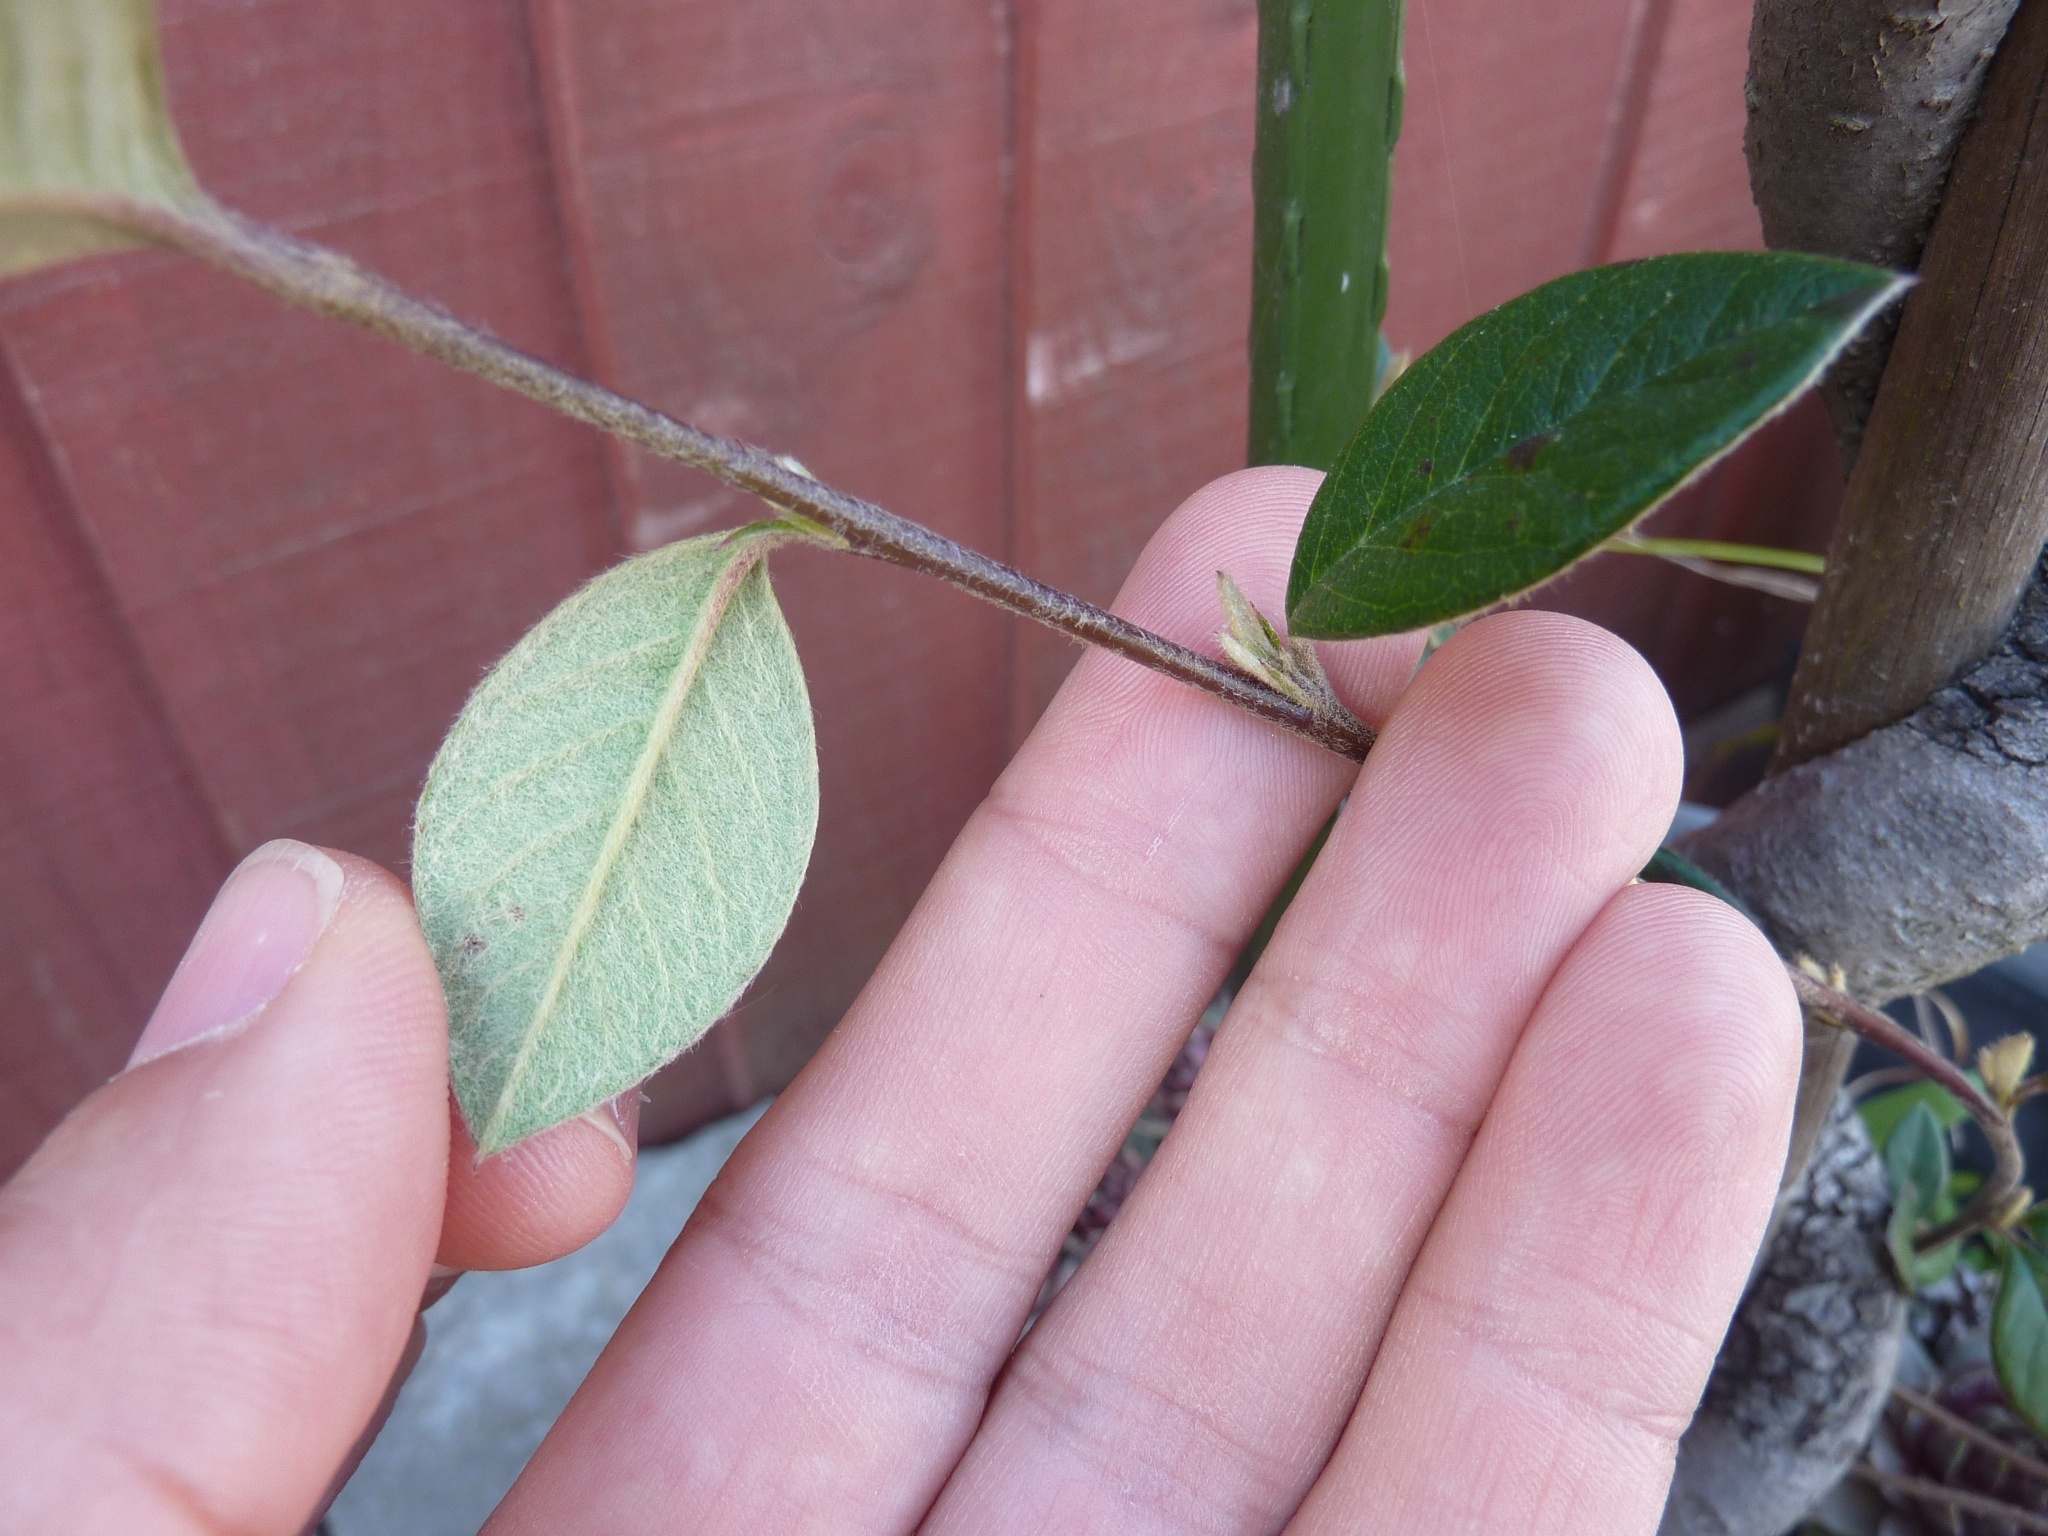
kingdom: Plantae
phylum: Tracheophyta
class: Magnoliopsida
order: Rosales
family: Rosaceae
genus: Cotoneaster
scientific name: Cotoneaster simonsii
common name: Himalayan cotoneaster
